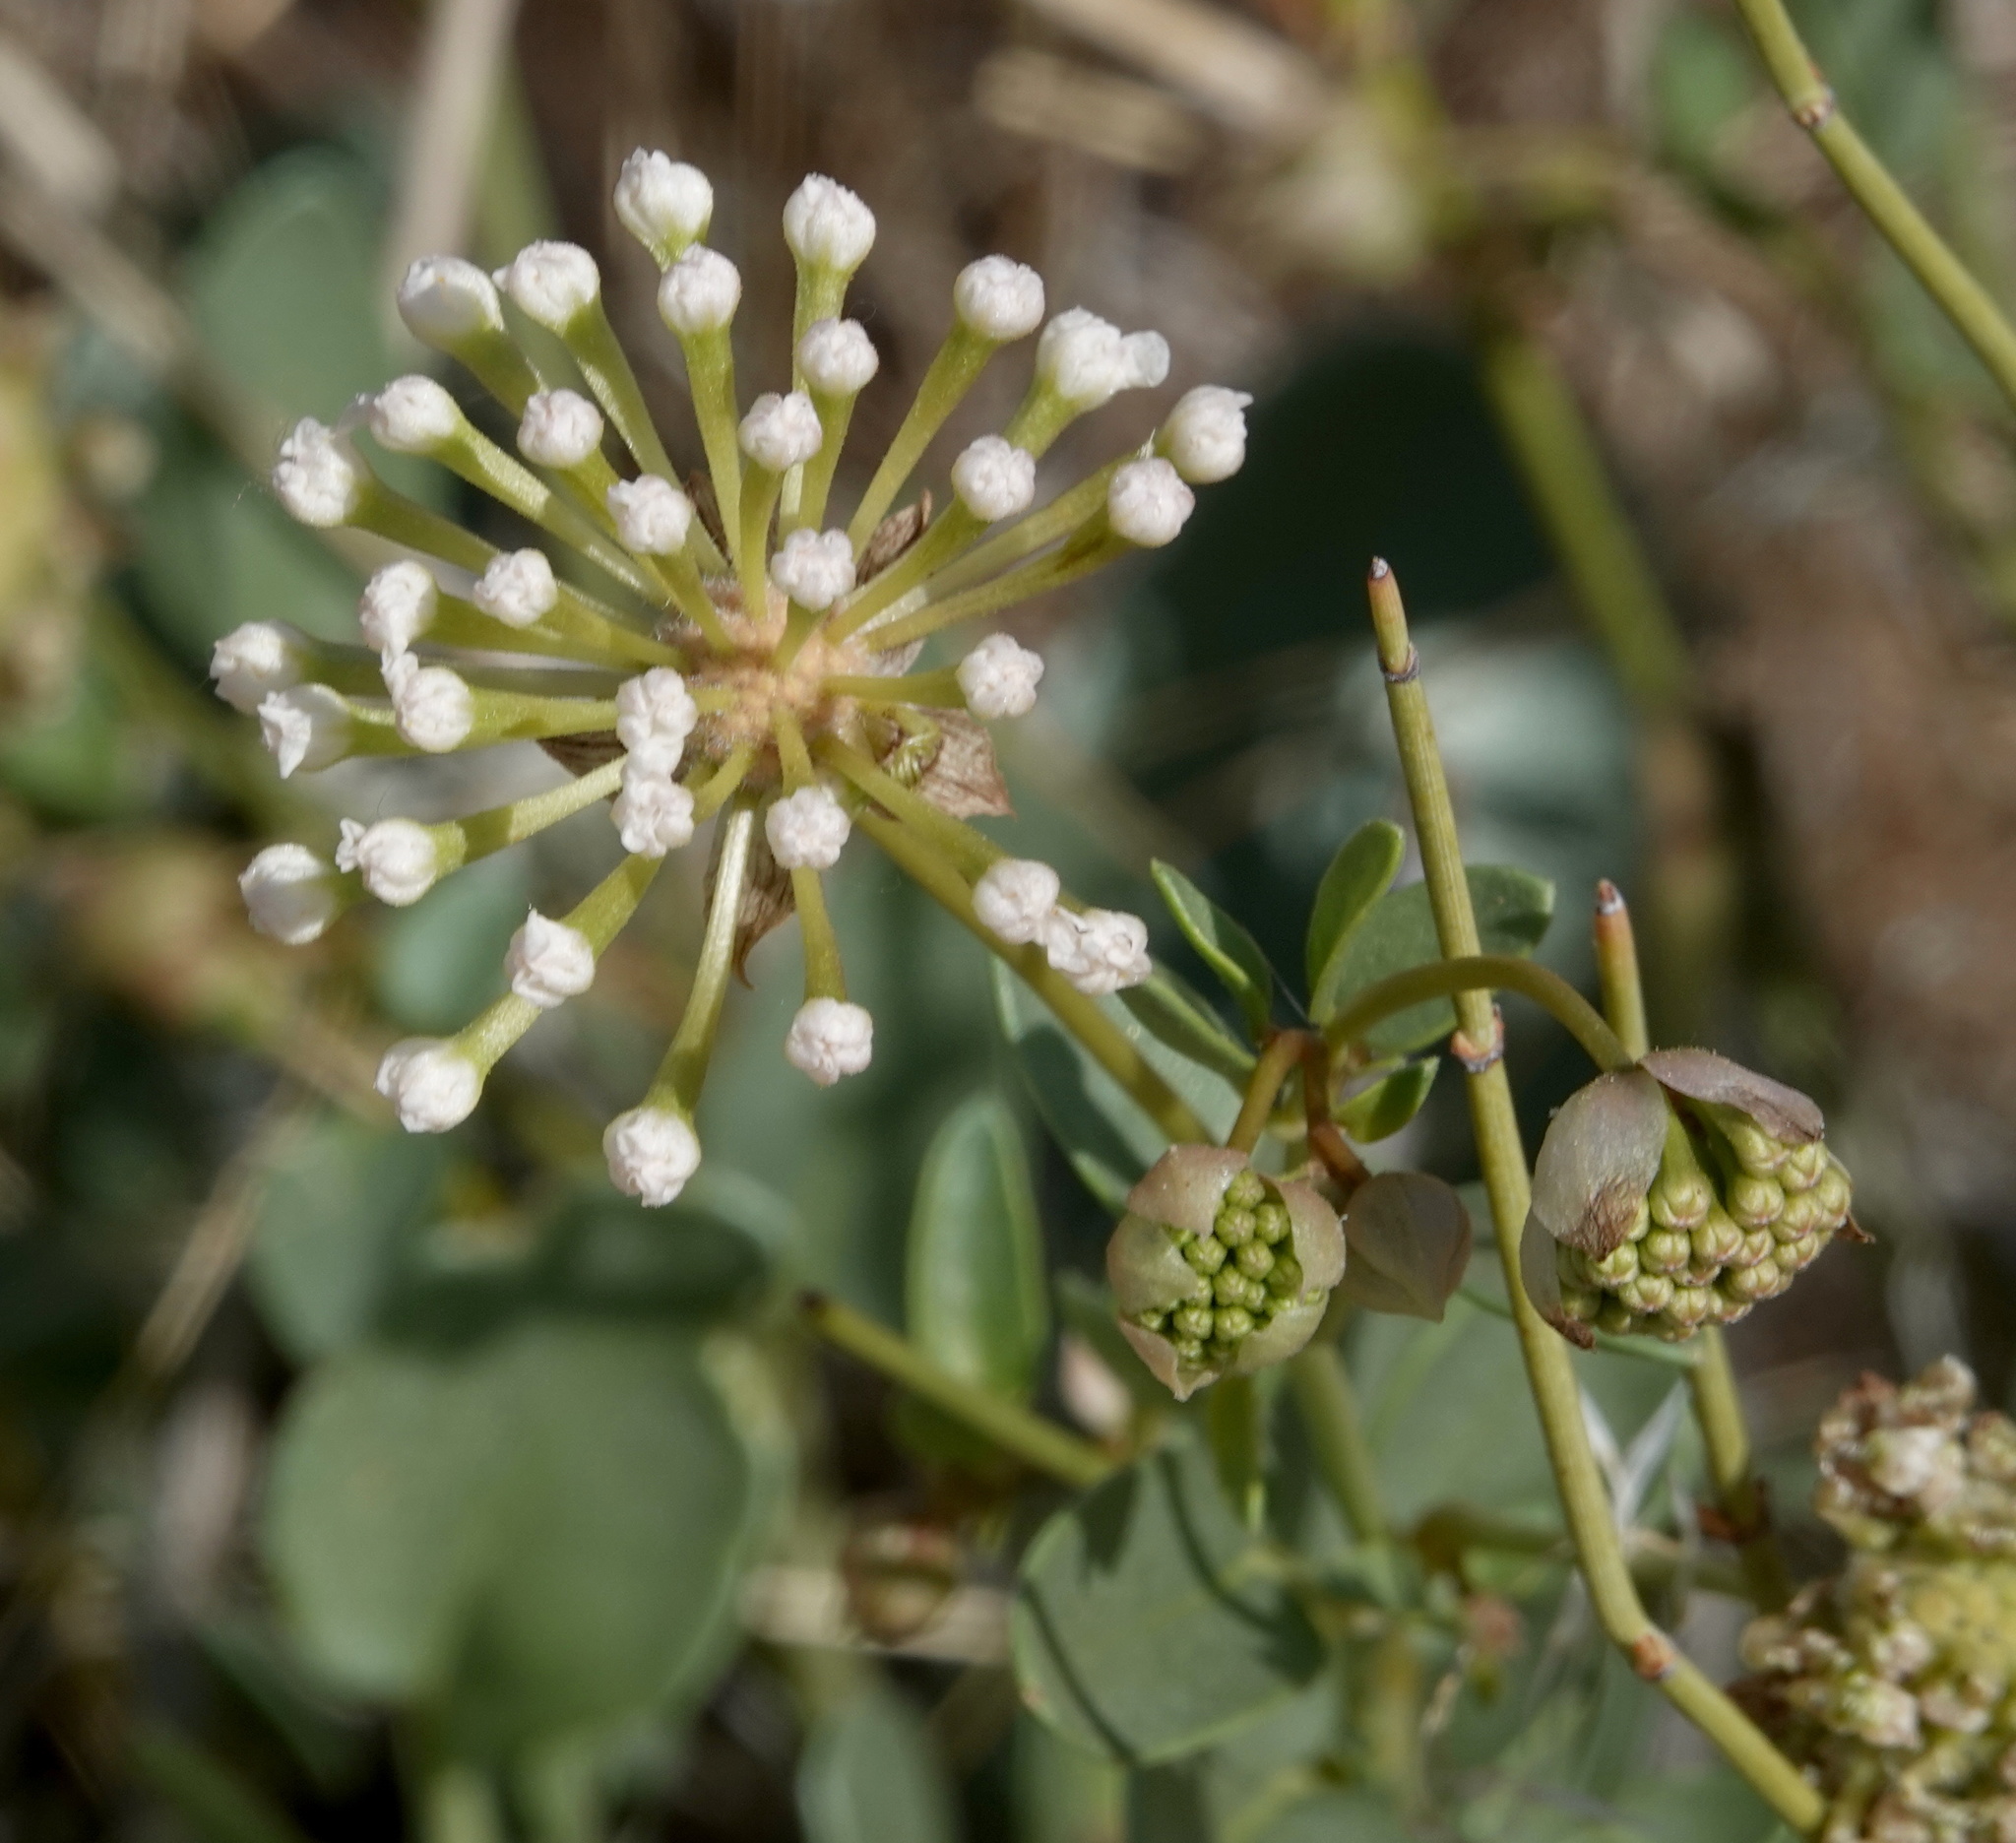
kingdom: Plantae
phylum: Tracheophyta
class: Magnoliopsida
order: Caryophyllales
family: Nyctaginaceae
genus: Abronia
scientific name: Abronia elliptica
